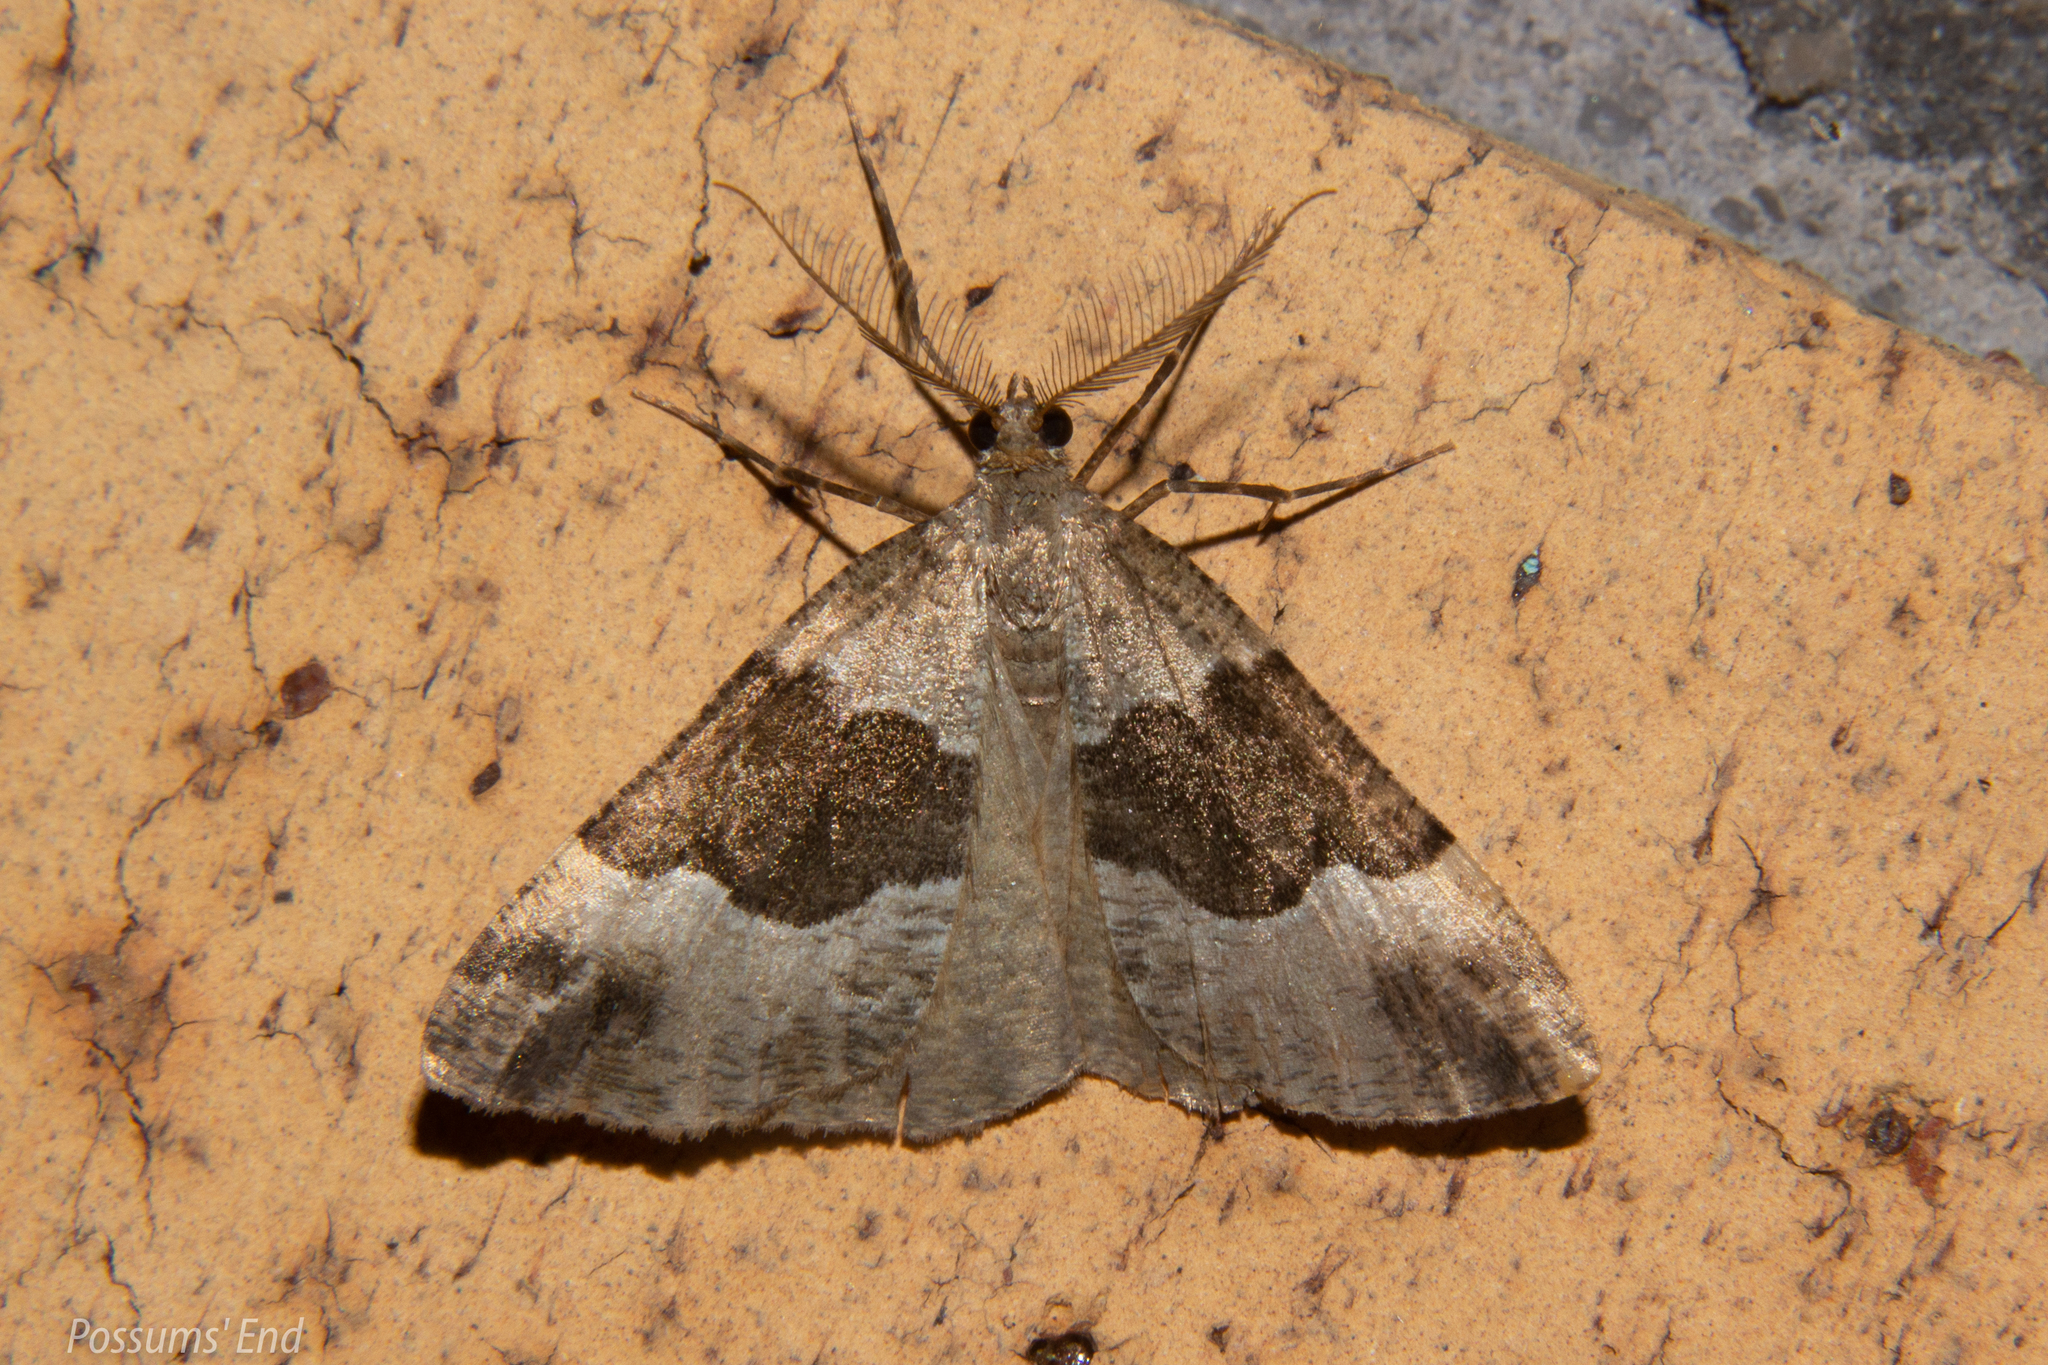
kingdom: Animalia
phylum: Arthropoda
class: Insecta
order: Lepidoptera
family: Geometridae
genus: Pseudocoremia
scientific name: Pseudocoremia
